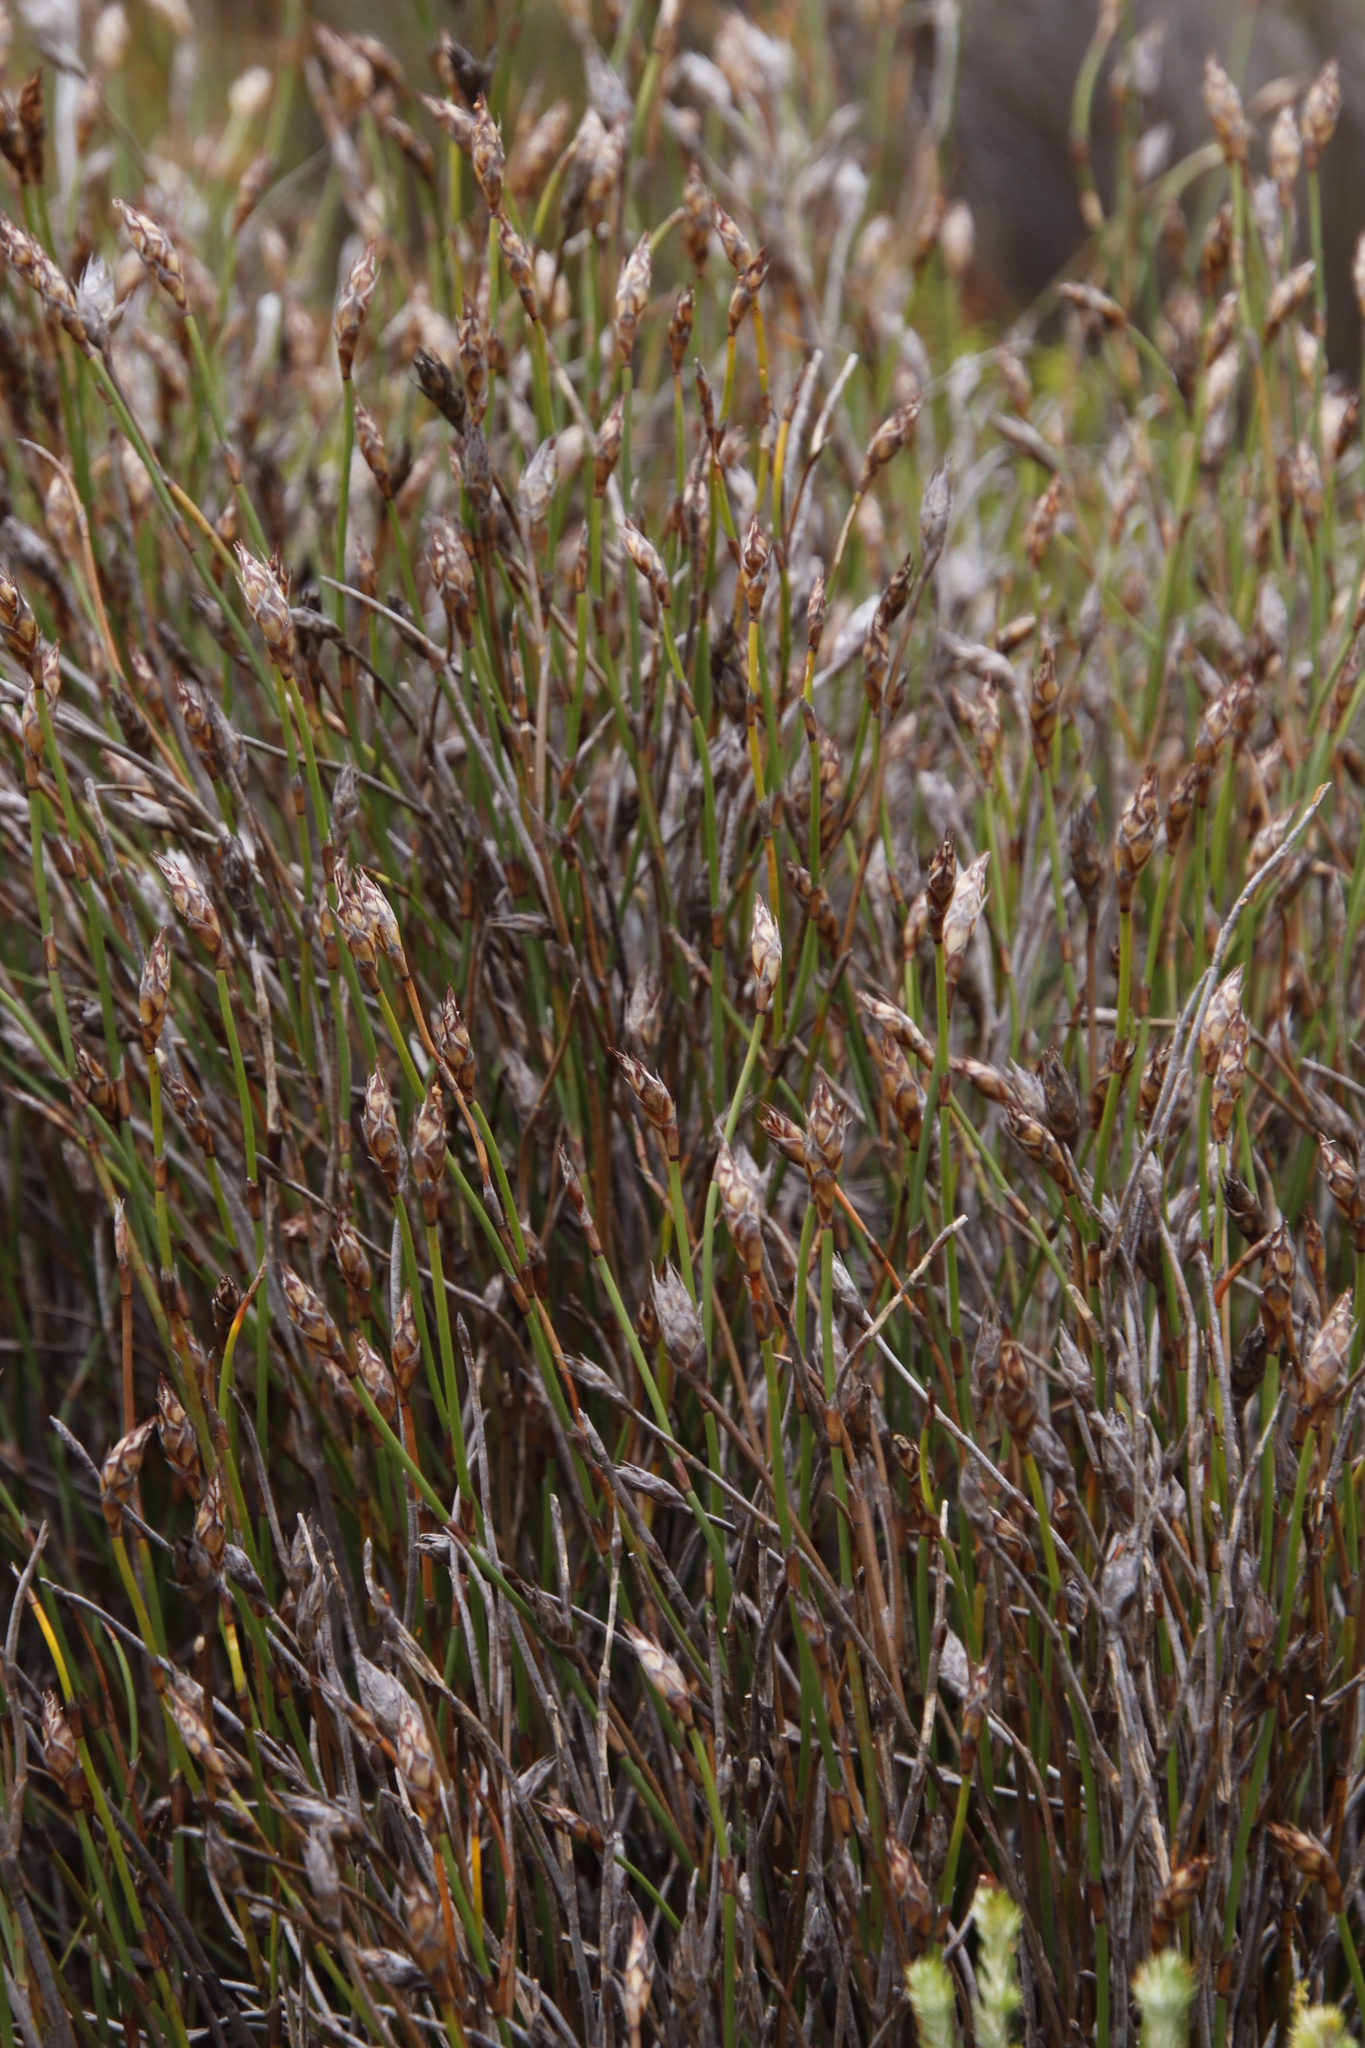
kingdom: Plantae
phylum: Tracheophyta
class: Liliopsida
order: Poales
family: Restionaceae
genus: Restio
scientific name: Restio egregius
